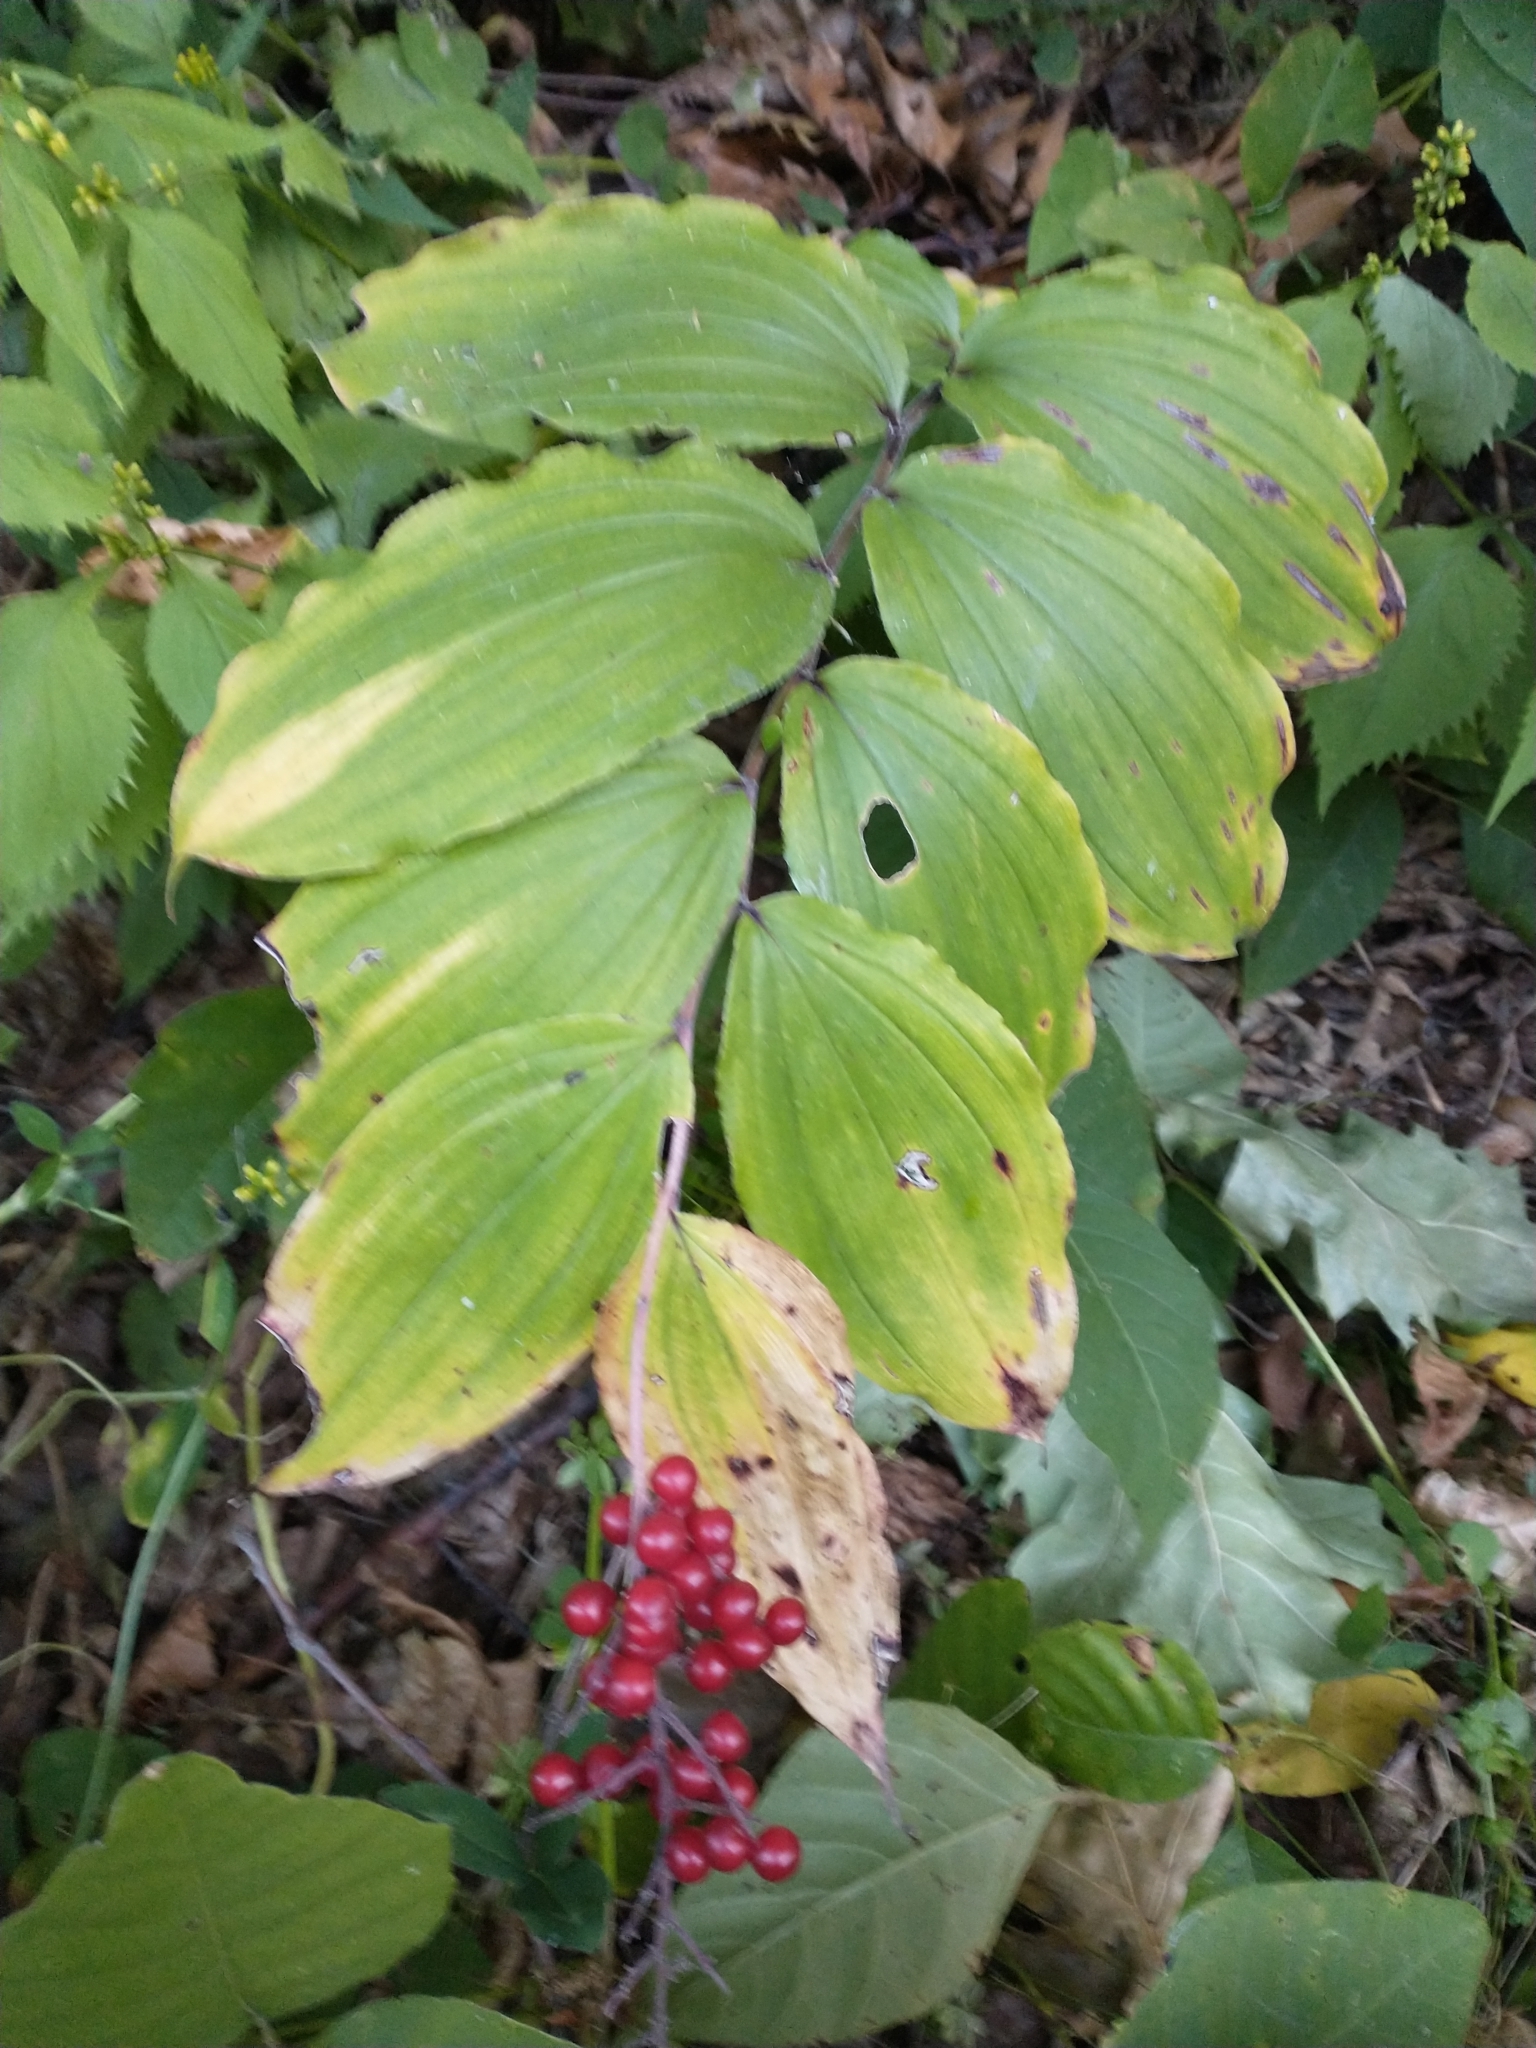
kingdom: Plantae
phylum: Tracheophyta
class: Liliopsida
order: Asparagales
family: Asparagaceae
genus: Maianthemum
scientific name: Maianthemum racemosum
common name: False spikenard
